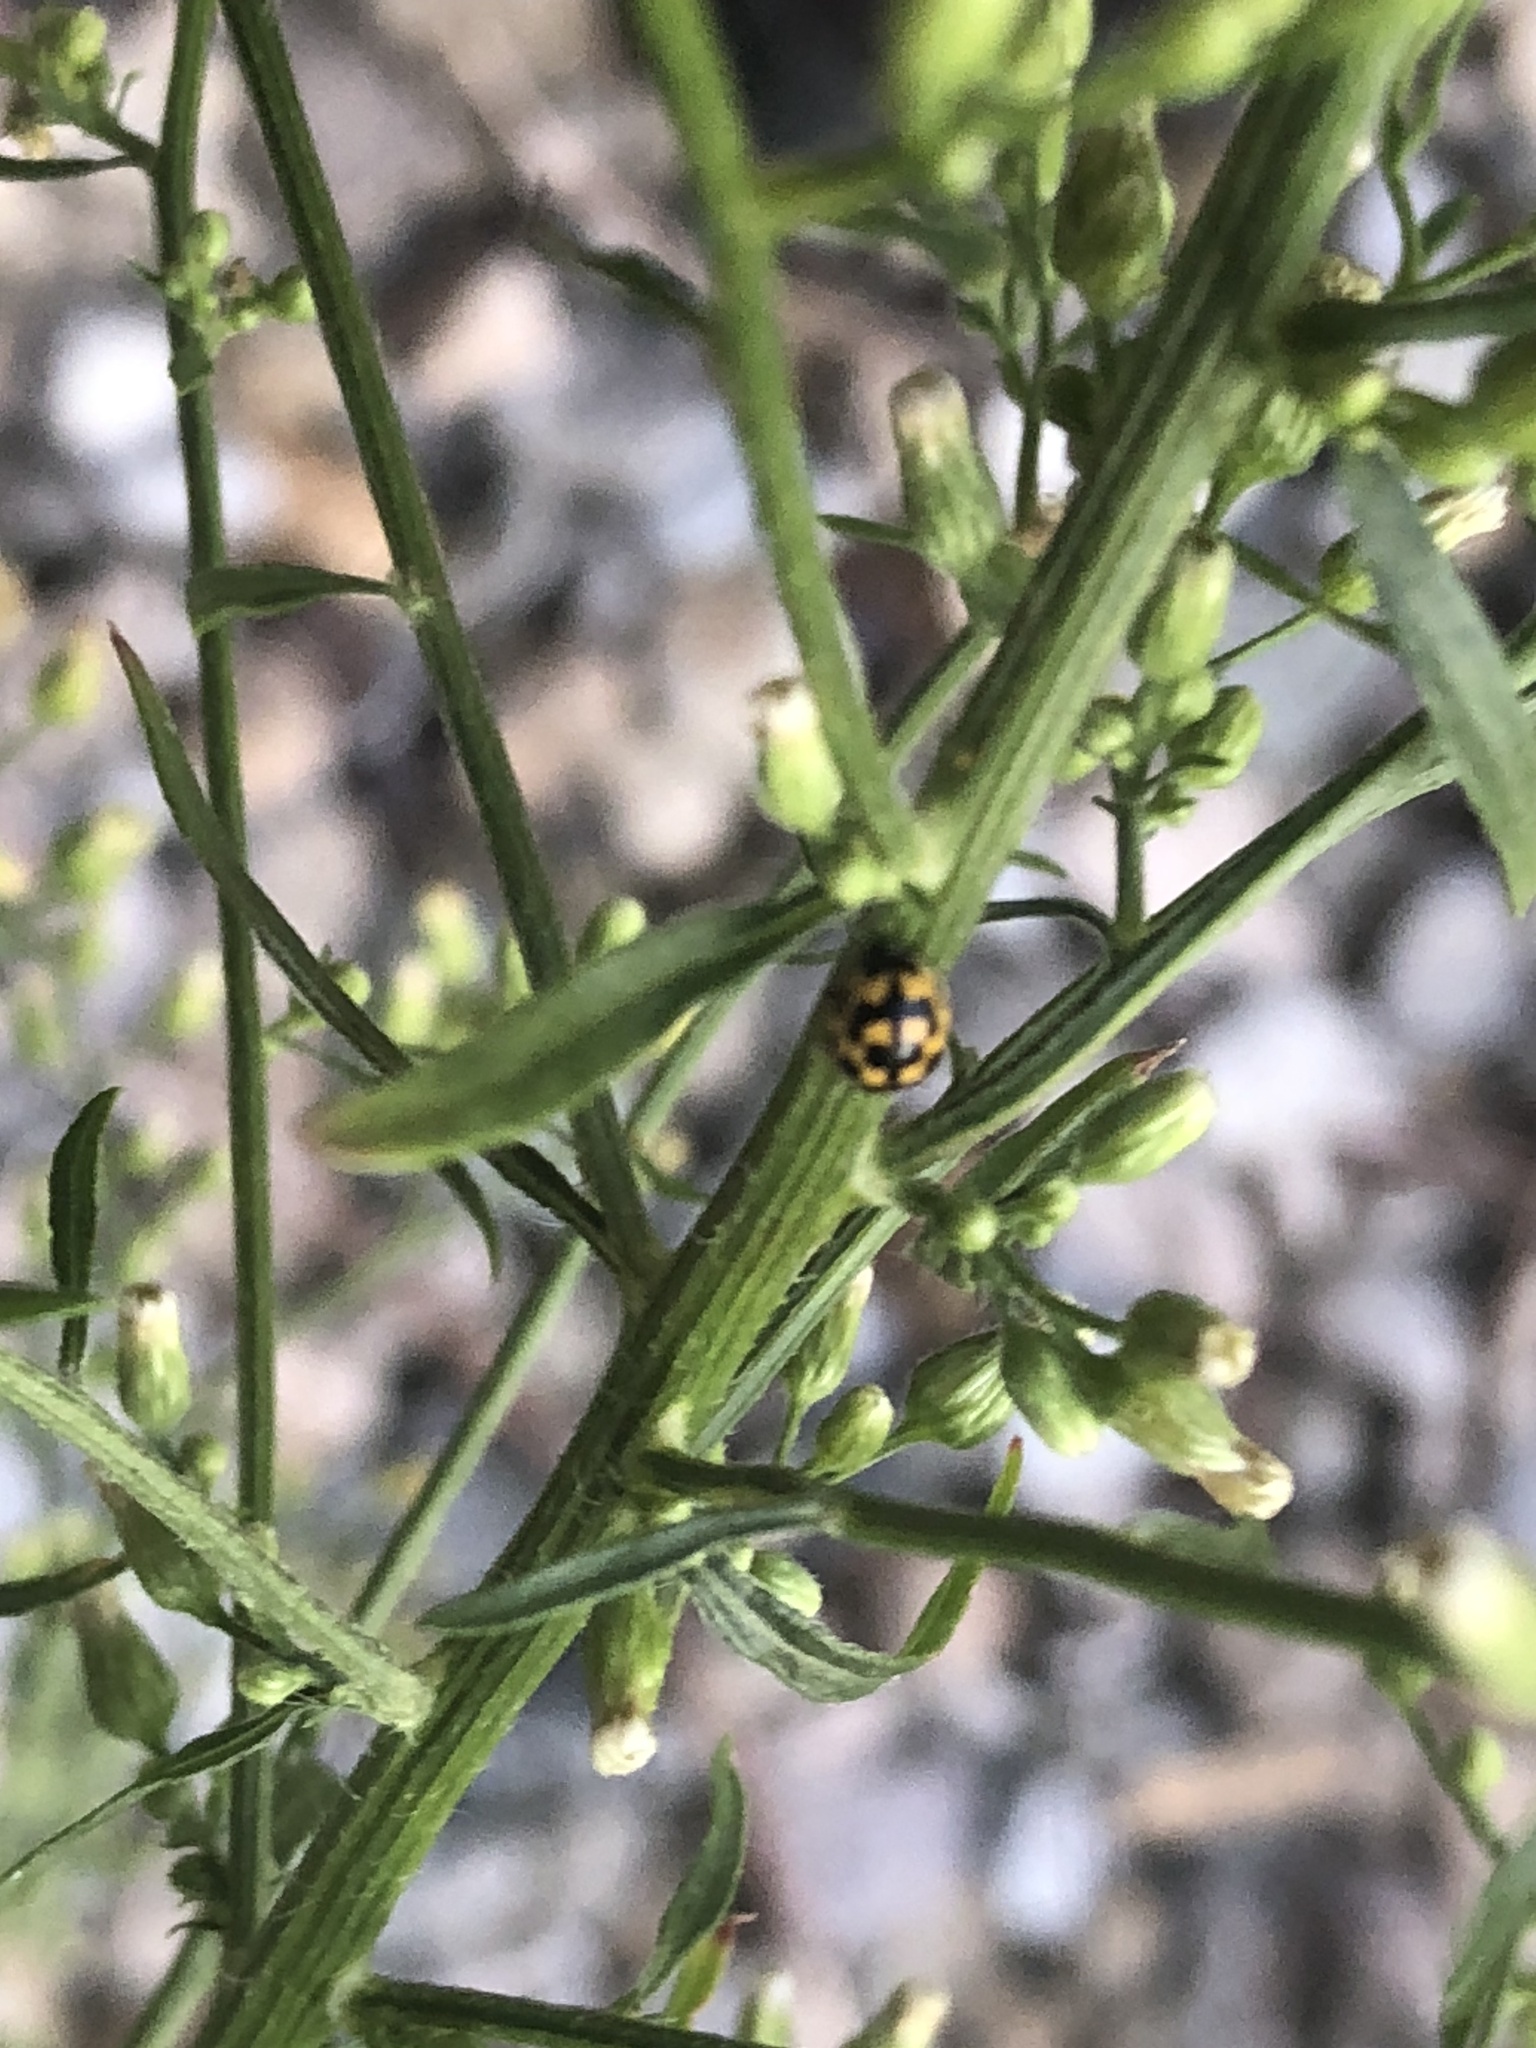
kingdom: Animalia
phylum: Arthropoda
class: Insecta
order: Coleoptera
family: Coccinellidae
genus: Propylaea
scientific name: Propylaea quatuordecimpunctata
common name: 14-spotted ladybird beetle
